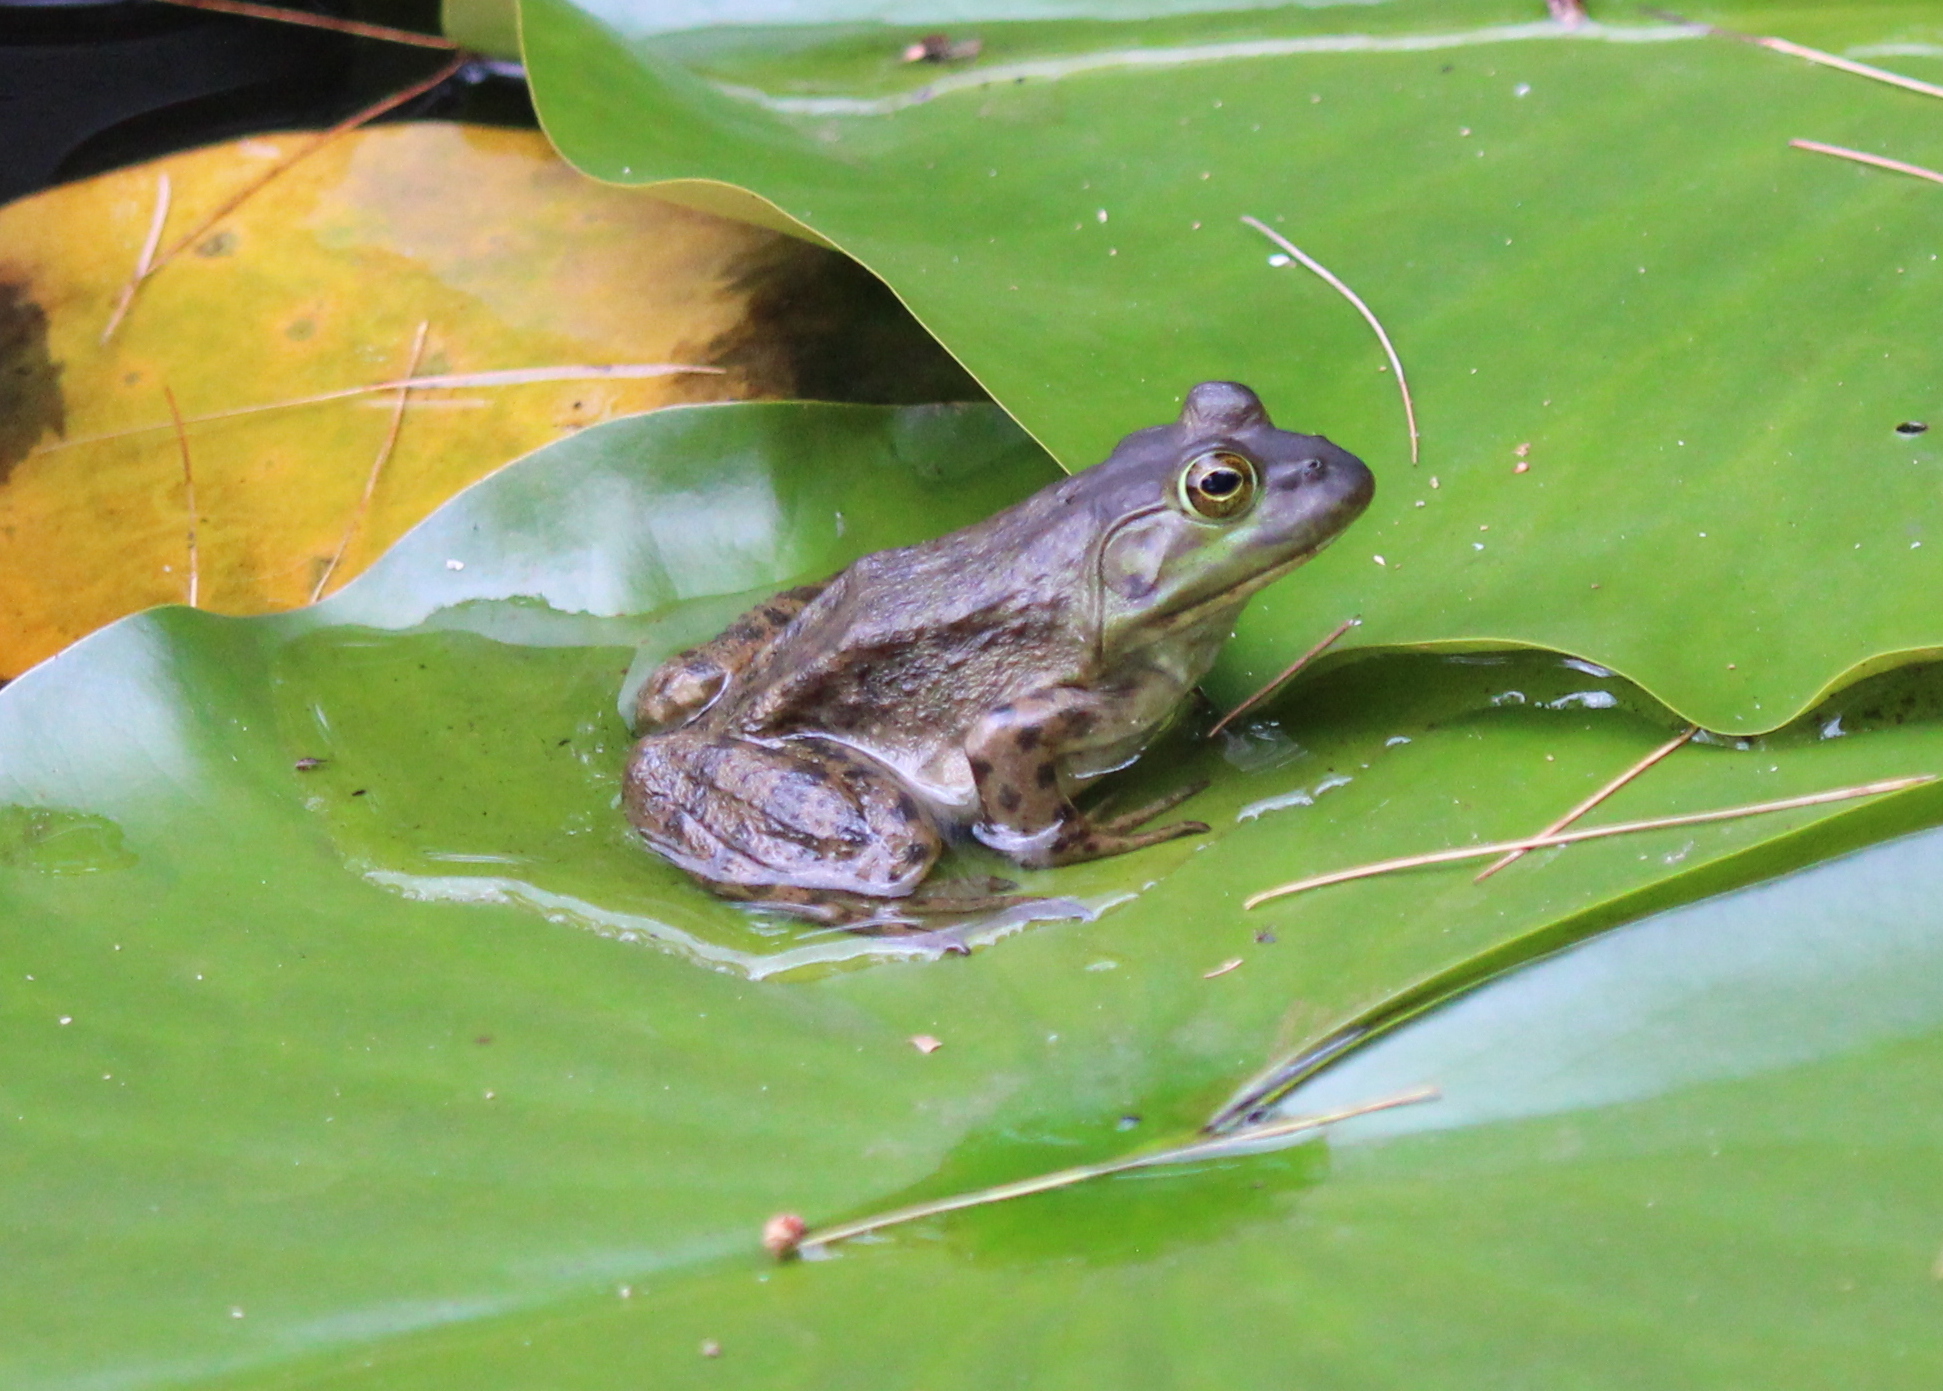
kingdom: Animalia
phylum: Chordata
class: Amphibia
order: Anura
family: Ranidae
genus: Lithobates
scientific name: Lithobates catesbeianus
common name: American bullfrog
